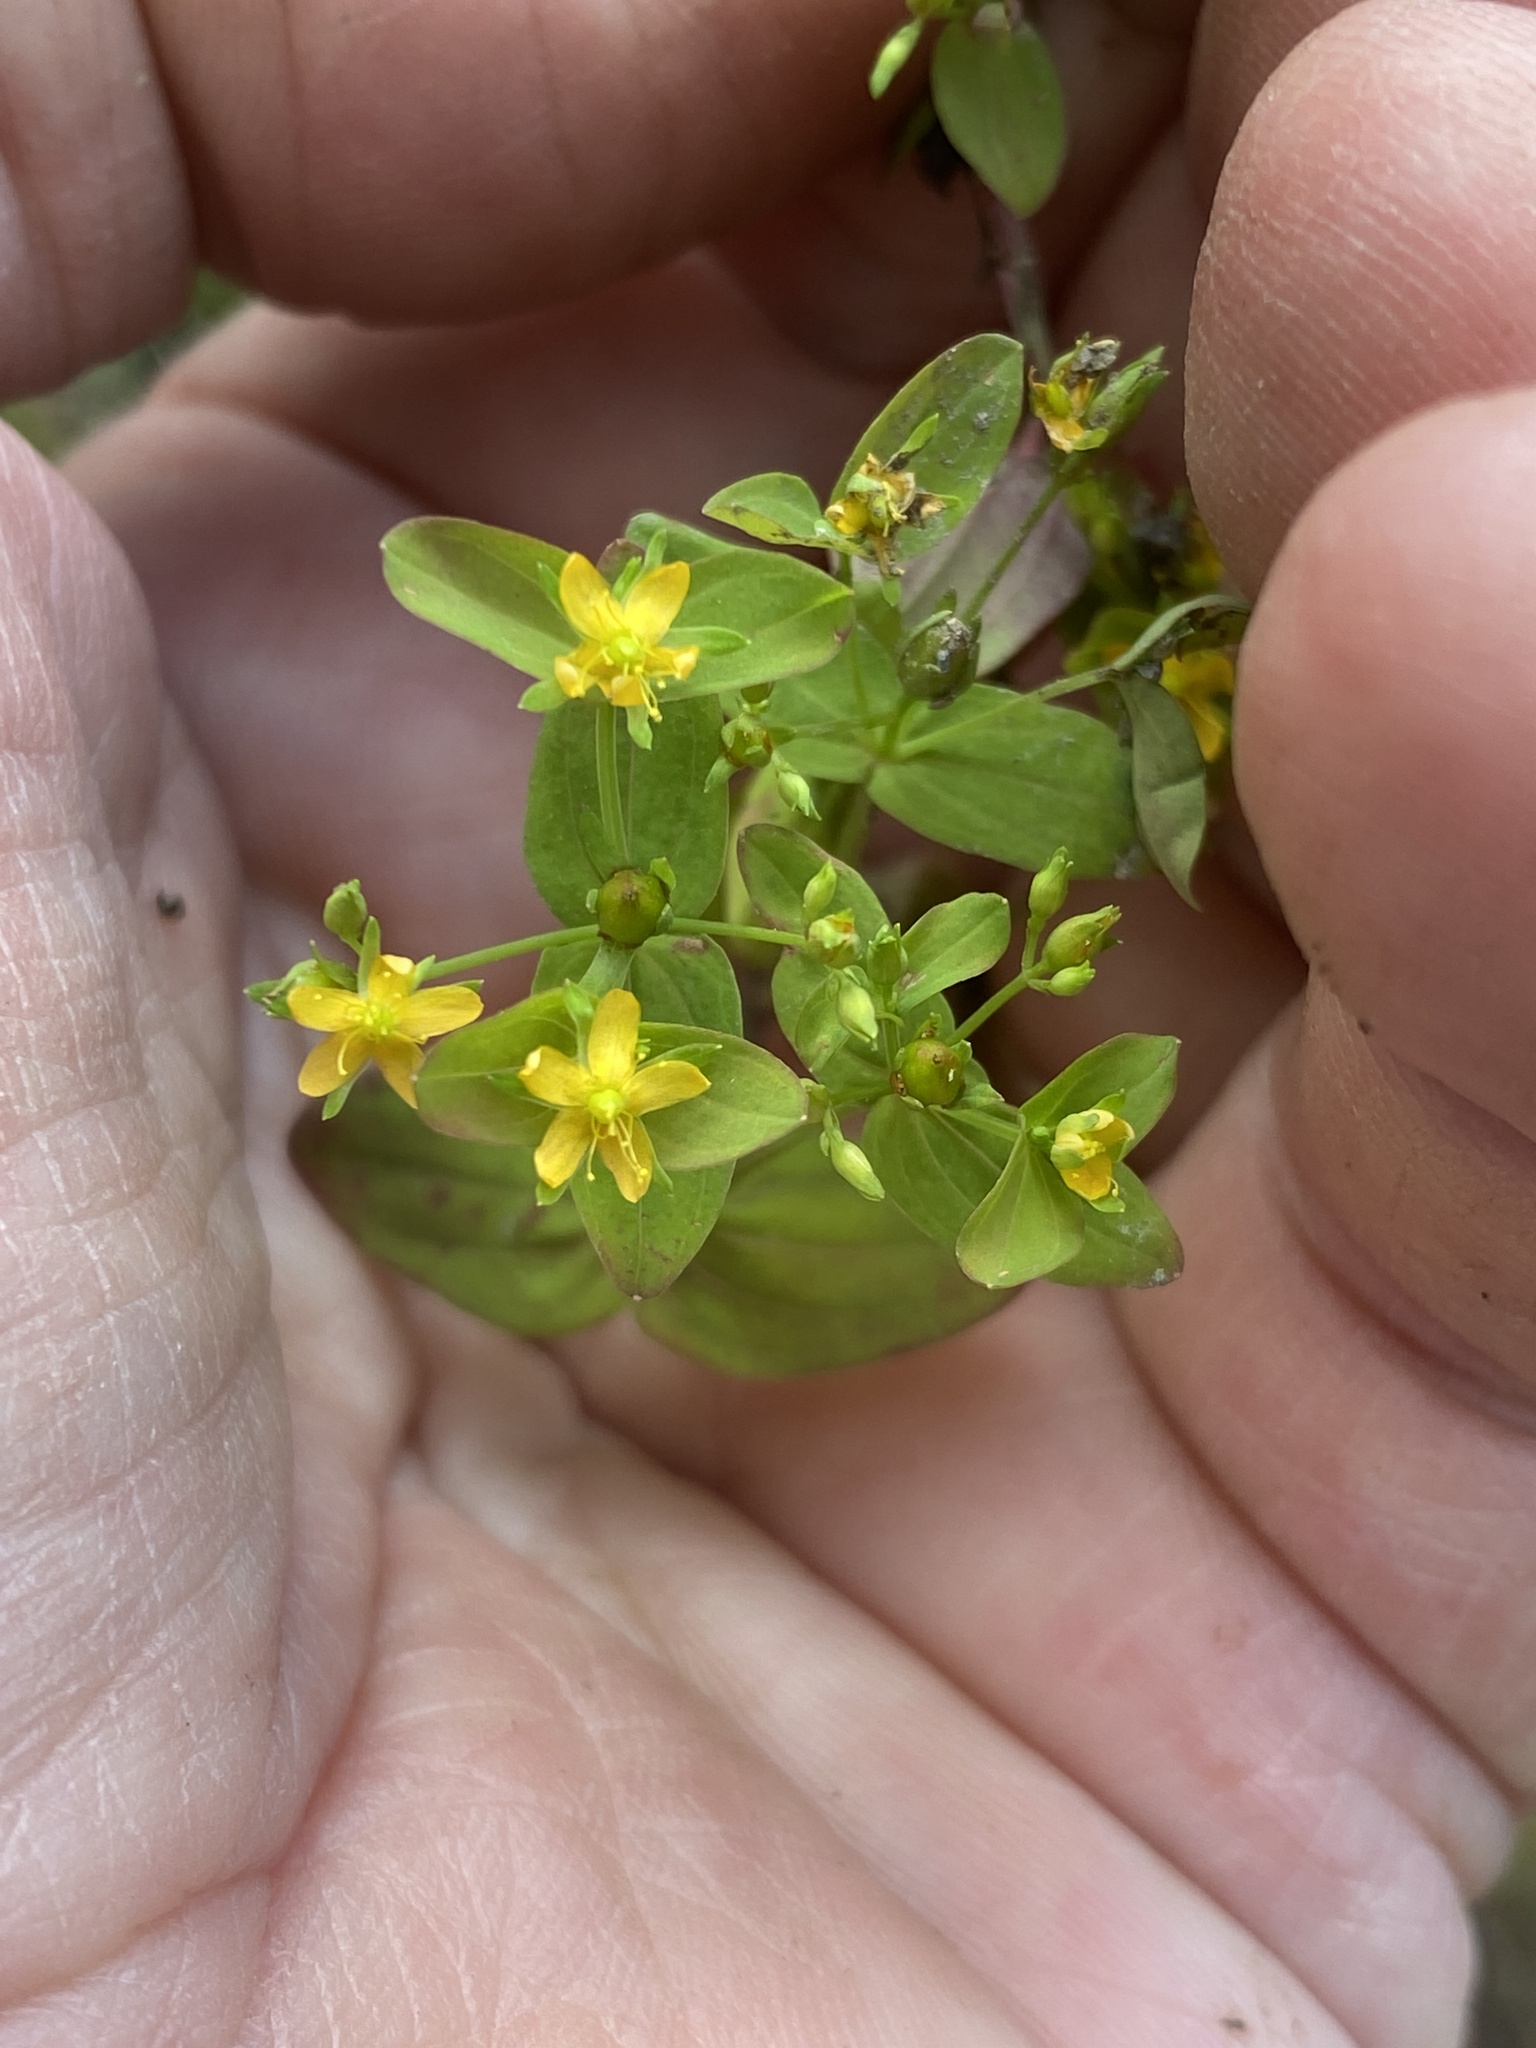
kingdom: Plantae
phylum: Tracheophyta
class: Magnoliopsida
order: Malpighiales
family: Hypericaceae
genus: Hypericum
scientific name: Hypericum mutilum
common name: Dwarf st. john's-wort
